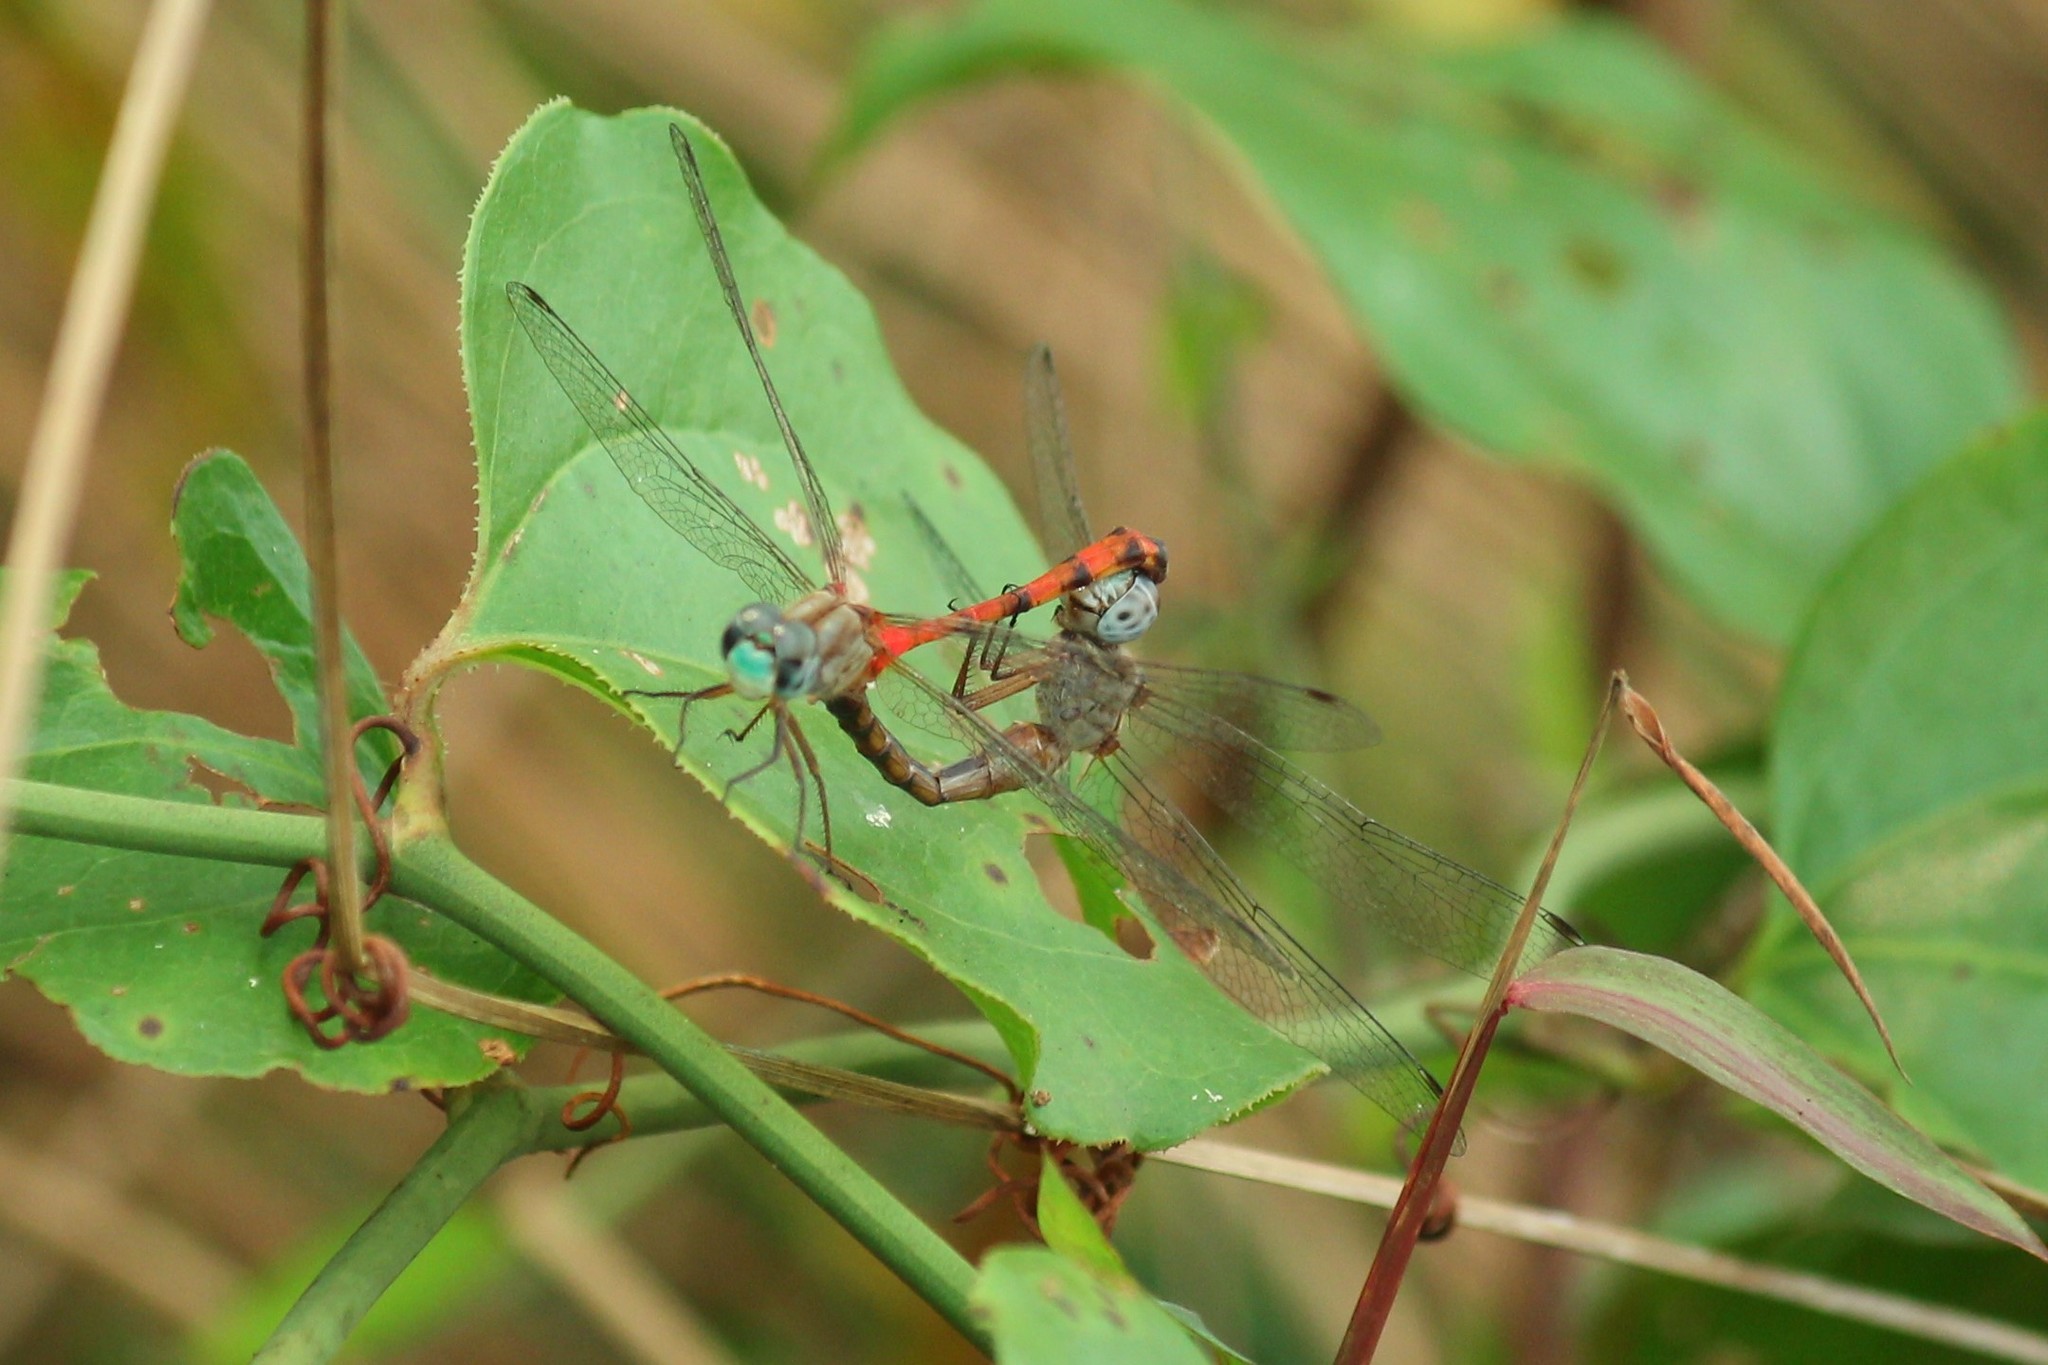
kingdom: Animalia
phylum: Arthropoda
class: Insecta
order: Odonata
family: Libellulidae
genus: Sympetrum
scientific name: Sympetrum ambiguum
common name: Blue-faced meadowhawk
